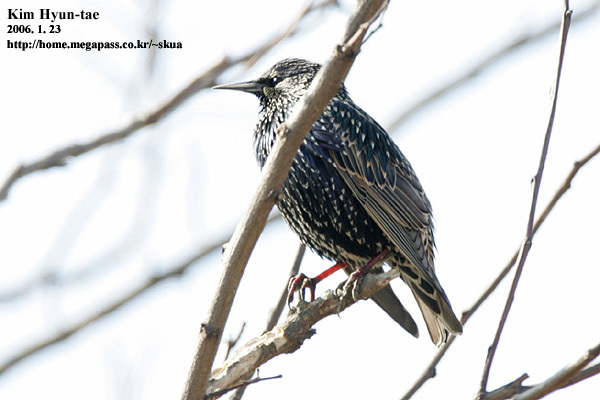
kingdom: Animalia
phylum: Chordata
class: Aves
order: Passeriformes
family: Sturnidae
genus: Sturnus
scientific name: Sturnus vulgaris
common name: Common starling
